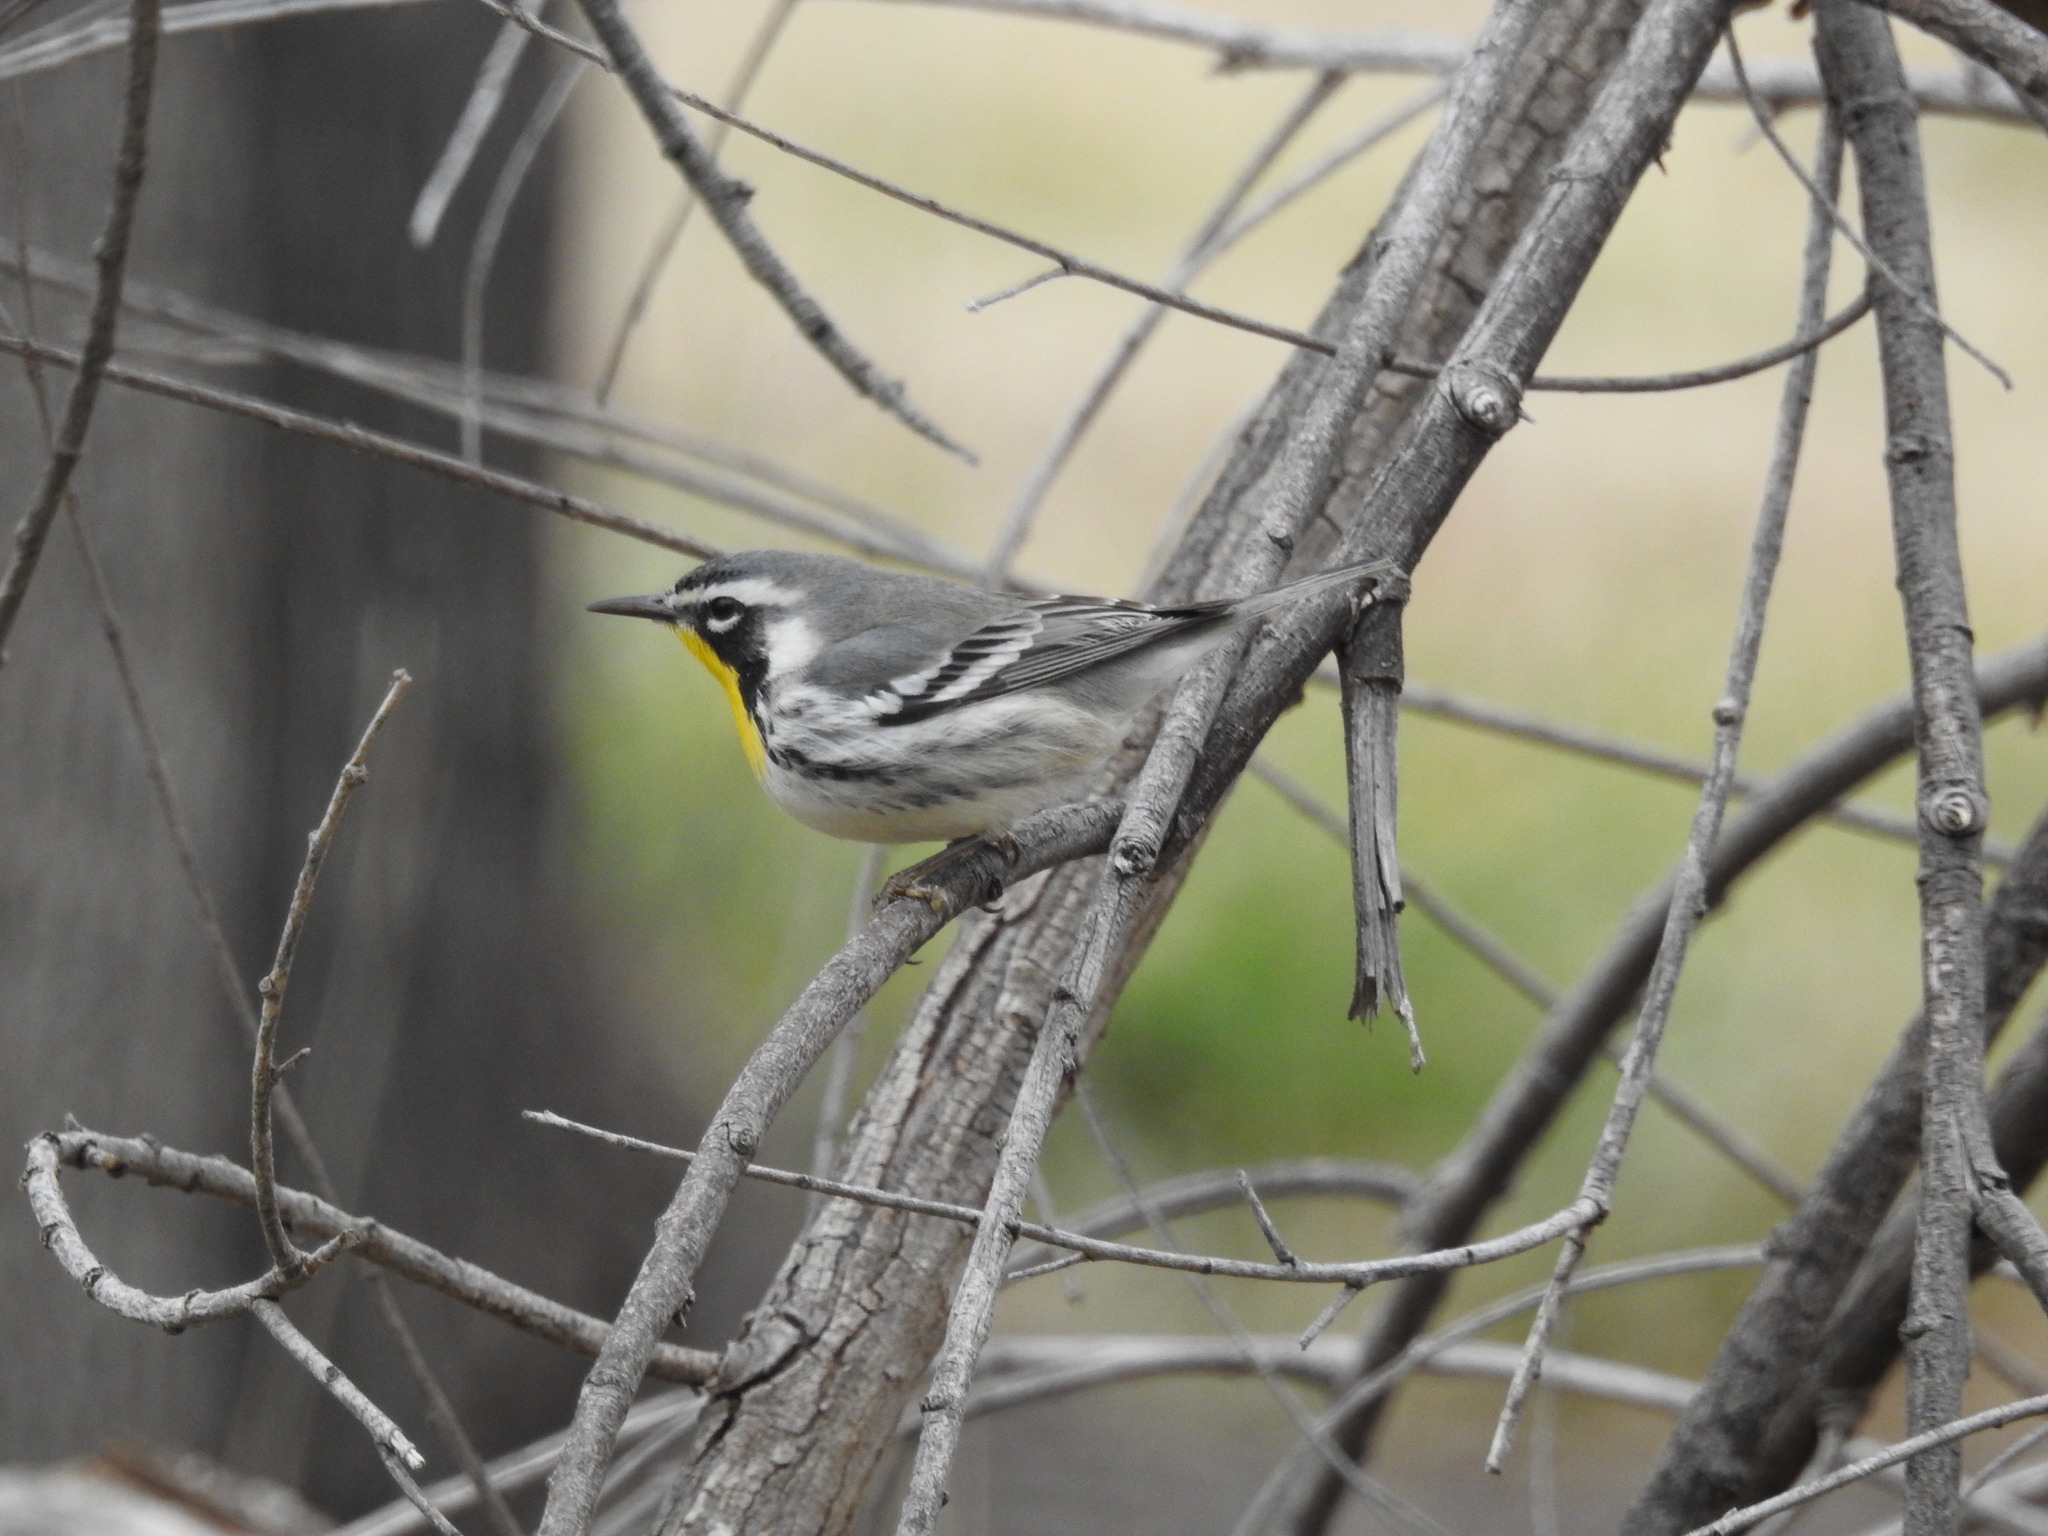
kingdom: Animalia
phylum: Chordata
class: Aves
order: Passeriformes
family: Parulidae
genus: Setophaga
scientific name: Setophaga dominica
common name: Yellow-throated warbler
